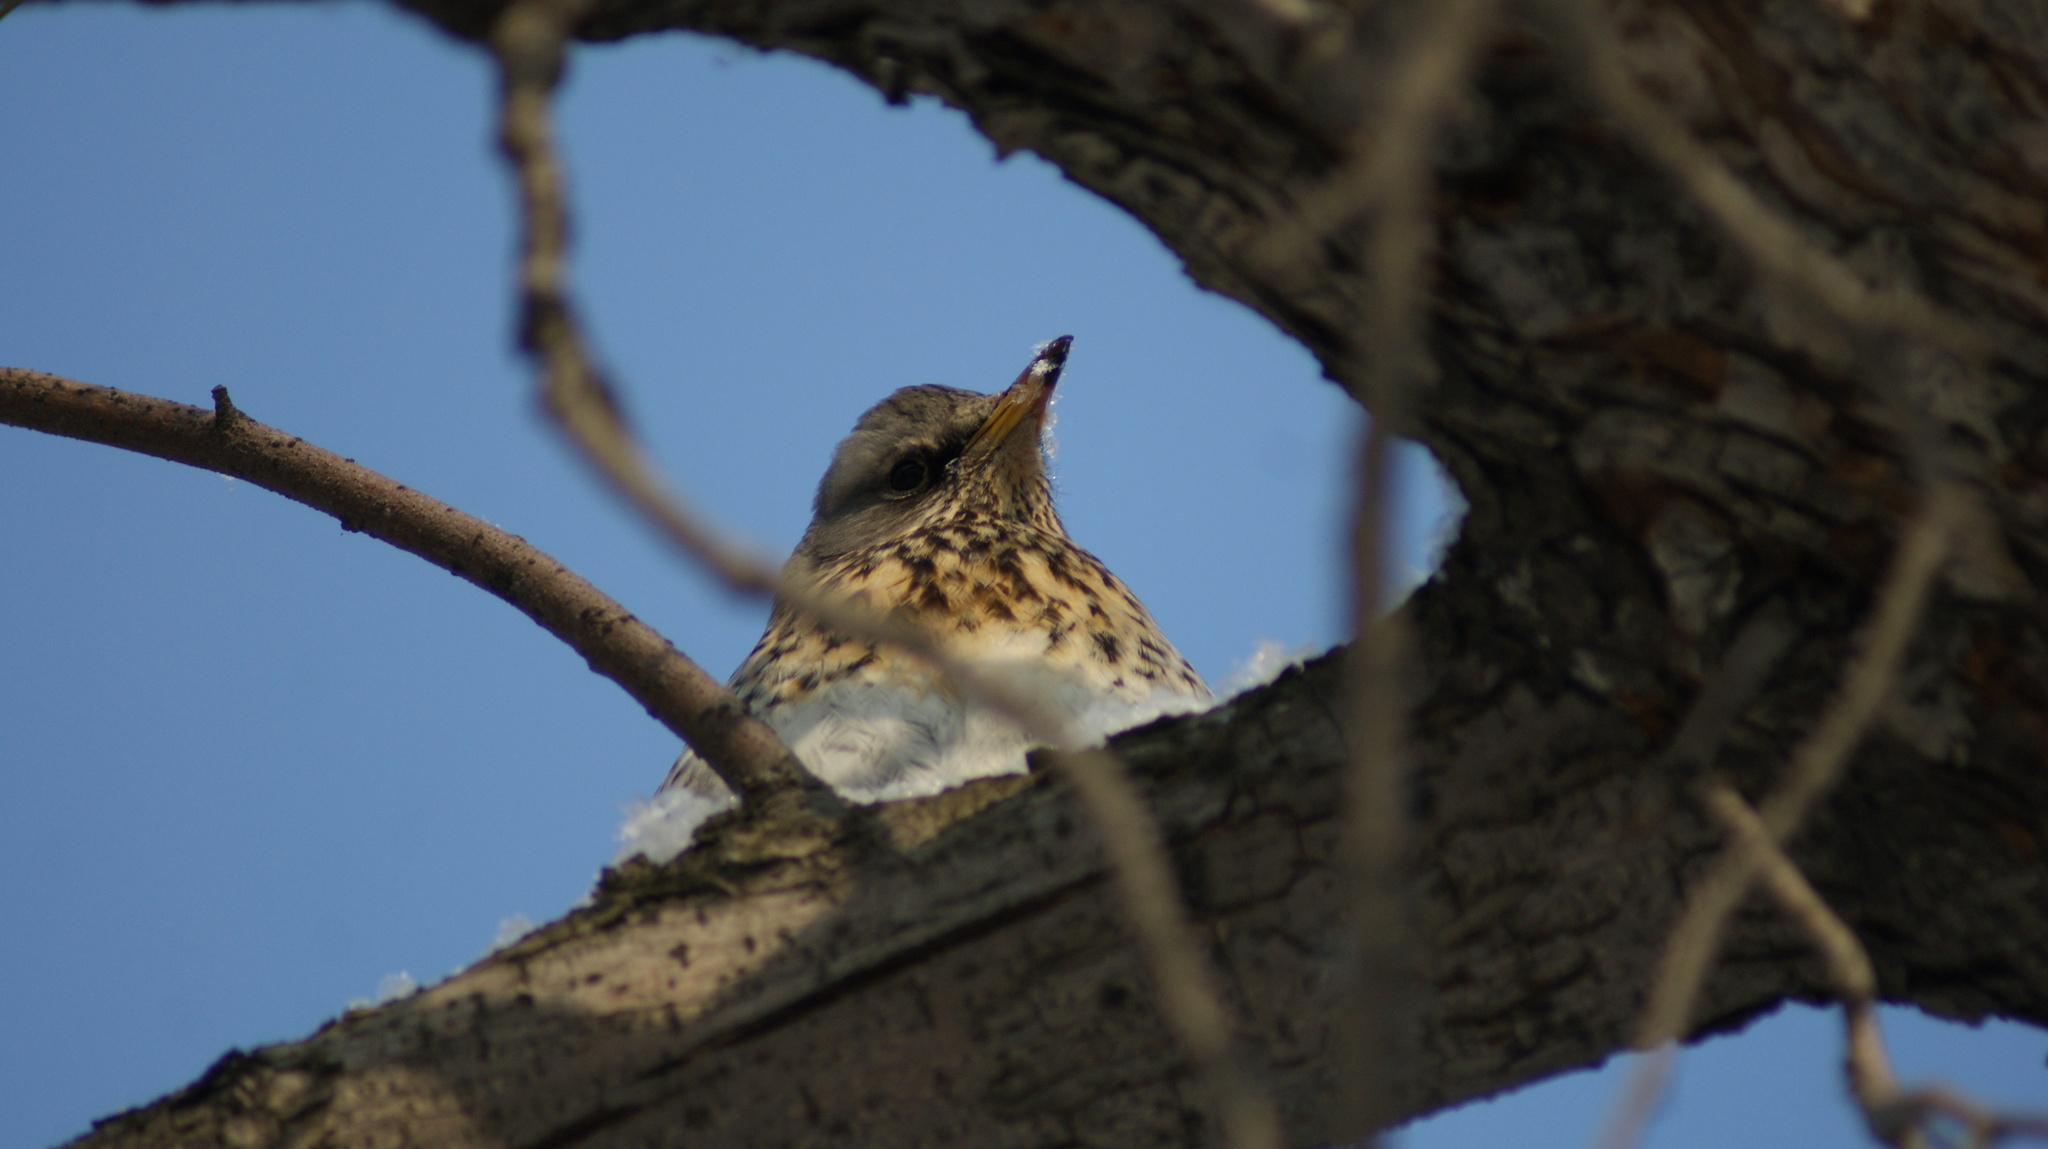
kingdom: Animalia
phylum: Chordata
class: Aves
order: Passeriformes
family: Turdidae
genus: Turdus
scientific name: Turdus pilaris
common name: Fieldfare
